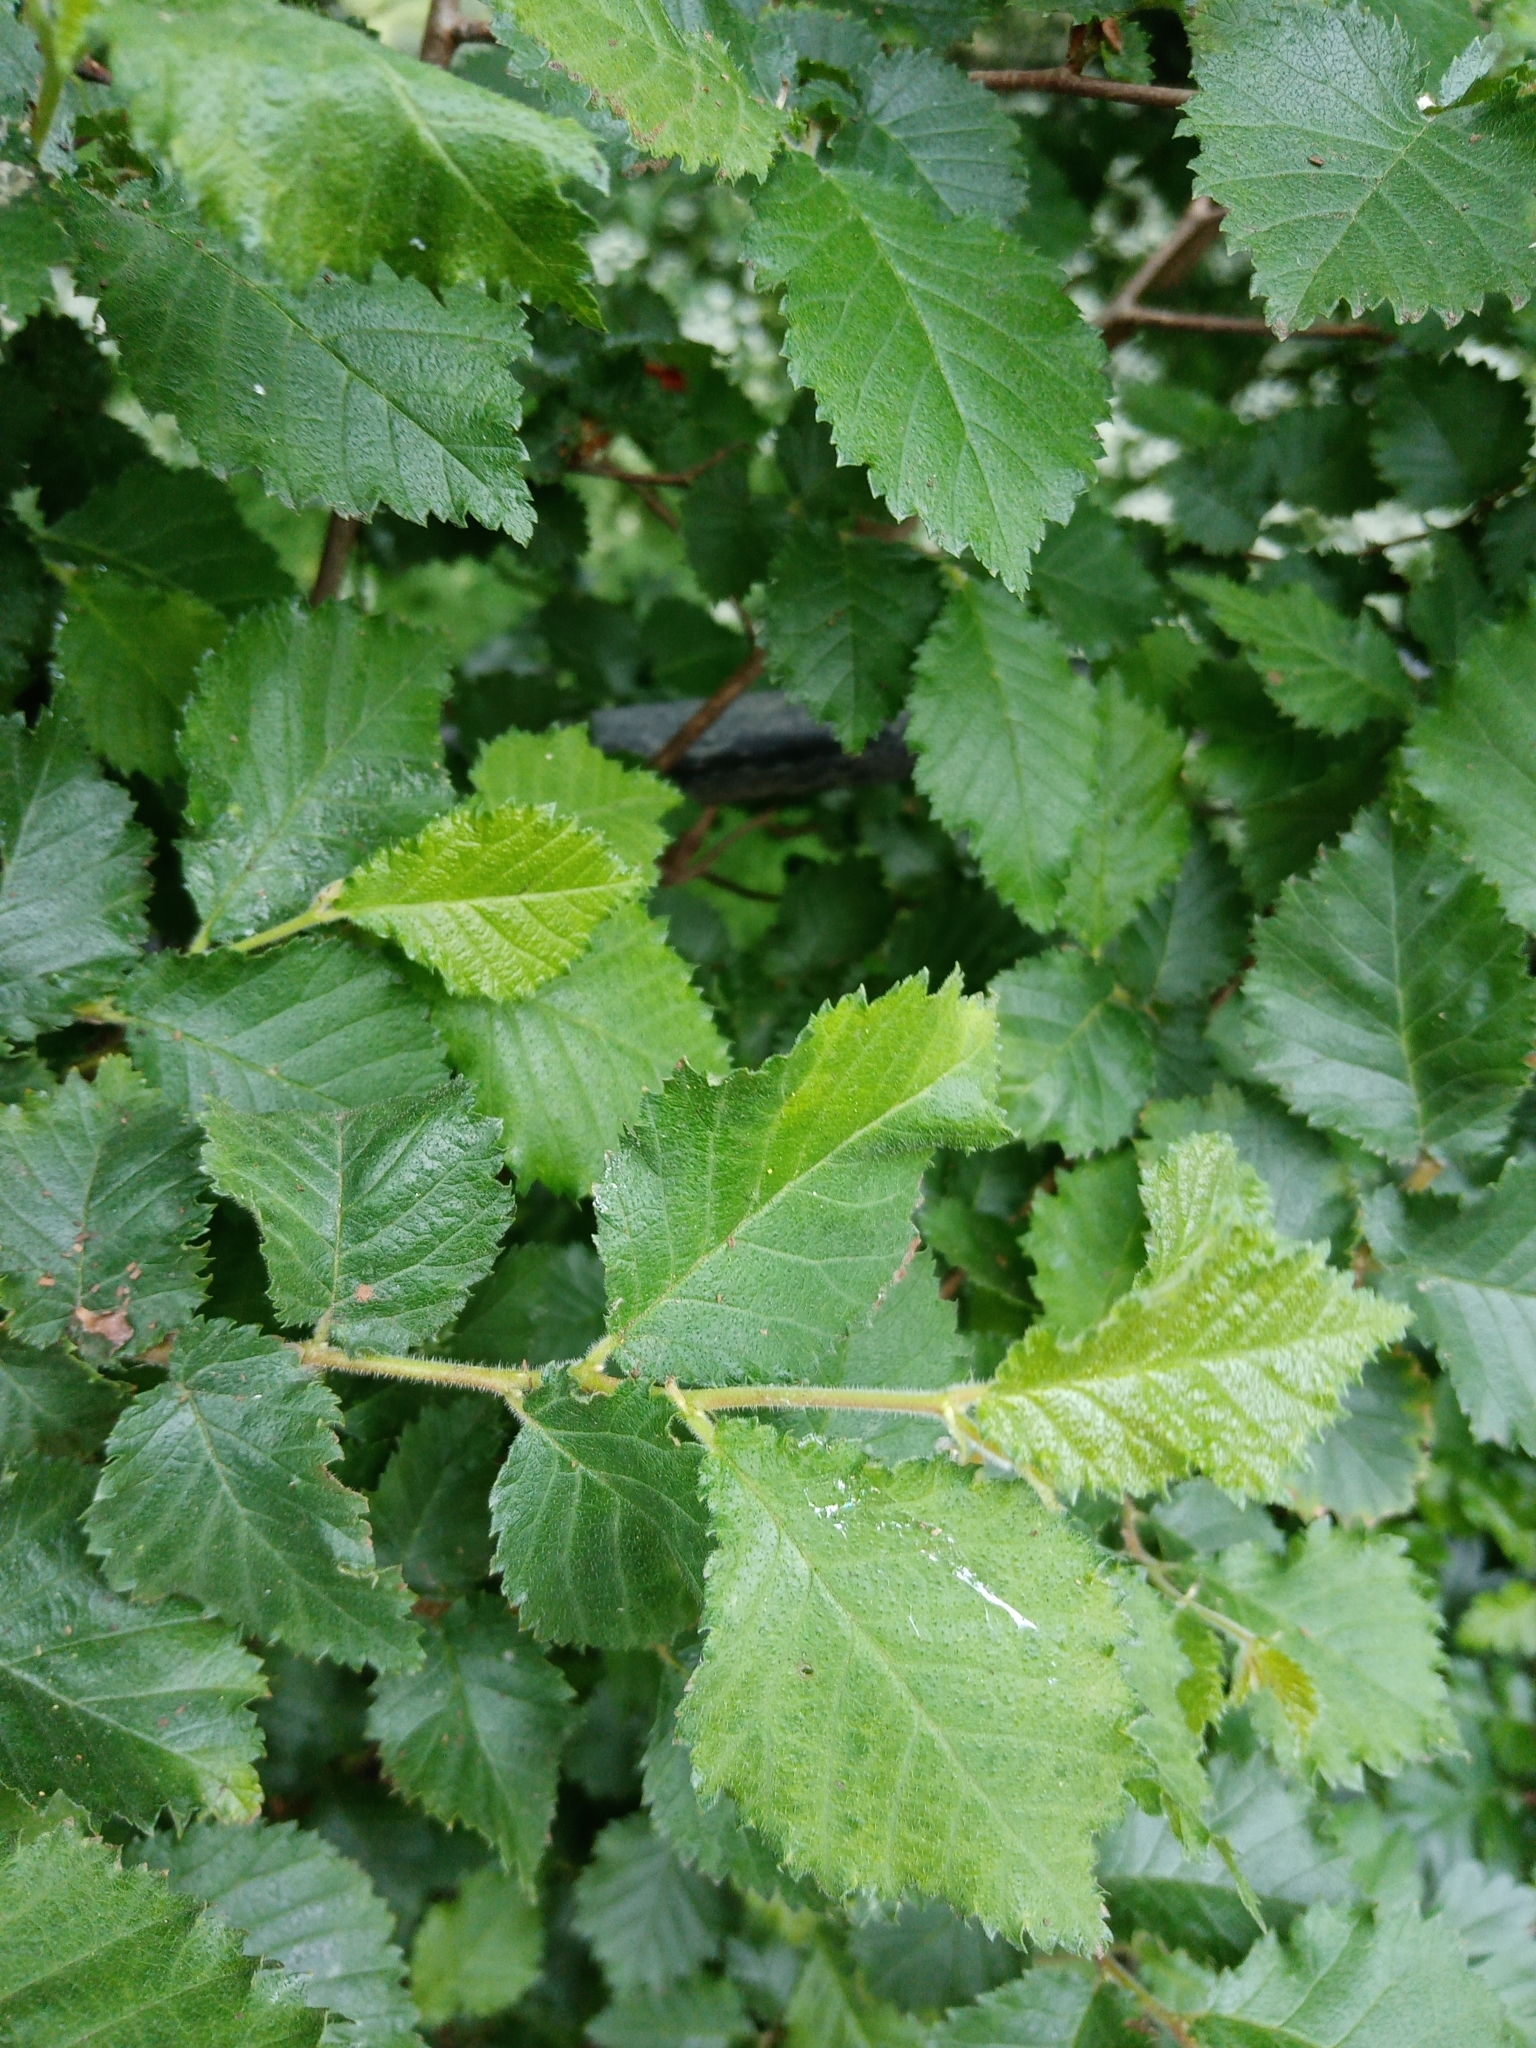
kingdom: Plantae
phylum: Tracheophyta
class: Magnoliopsida
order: Rosales
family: Ulmaceae
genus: Ulmus
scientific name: Ulmus minor
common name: Small-leaved elm
